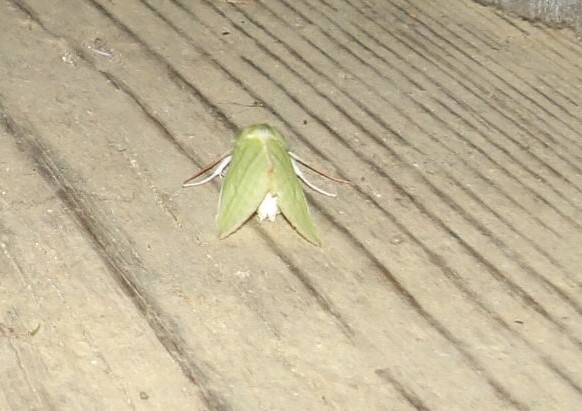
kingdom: Animalia
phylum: Arthropoda
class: Insecta
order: Lepidoptera
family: Nolidae
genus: Pseudoips
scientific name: Pseudoips prasinana
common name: Green silver-lines
